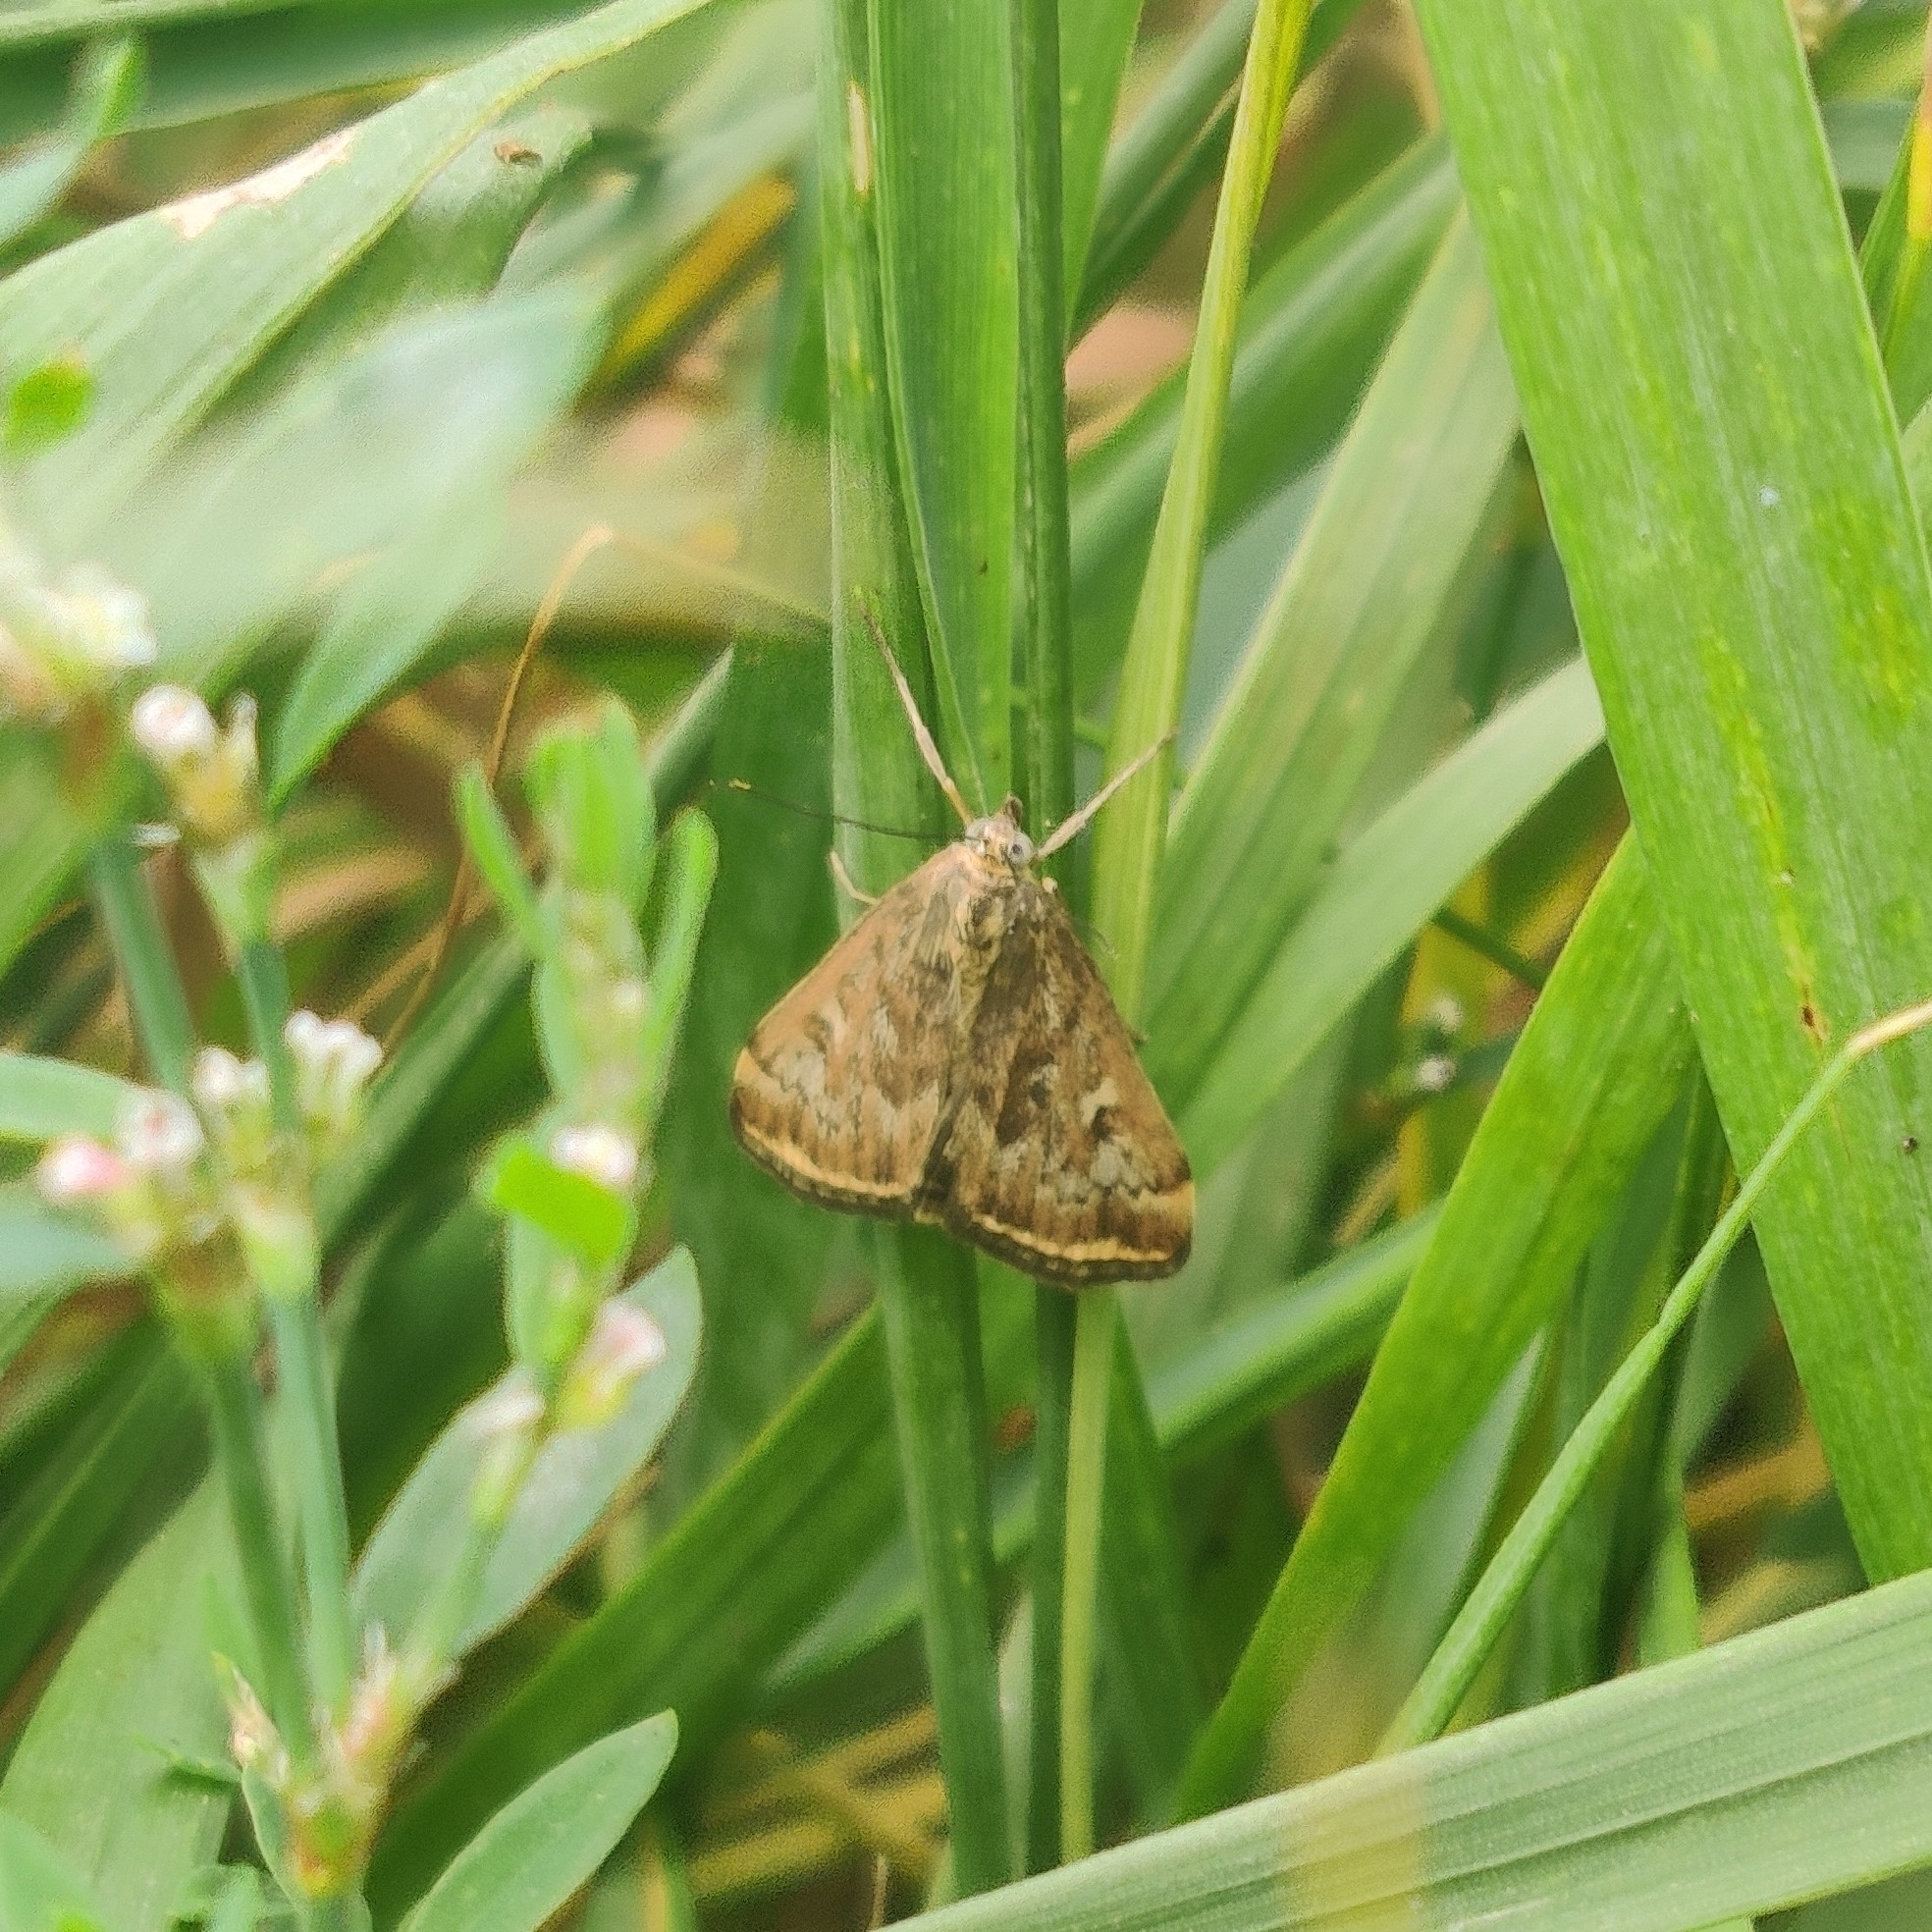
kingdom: Animalia
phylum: Arthropoda
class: Insecta
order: Lepidoptera
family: Crambidae
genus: Loxostege
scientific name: Loxostege sticticalis
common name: Crambid moth
